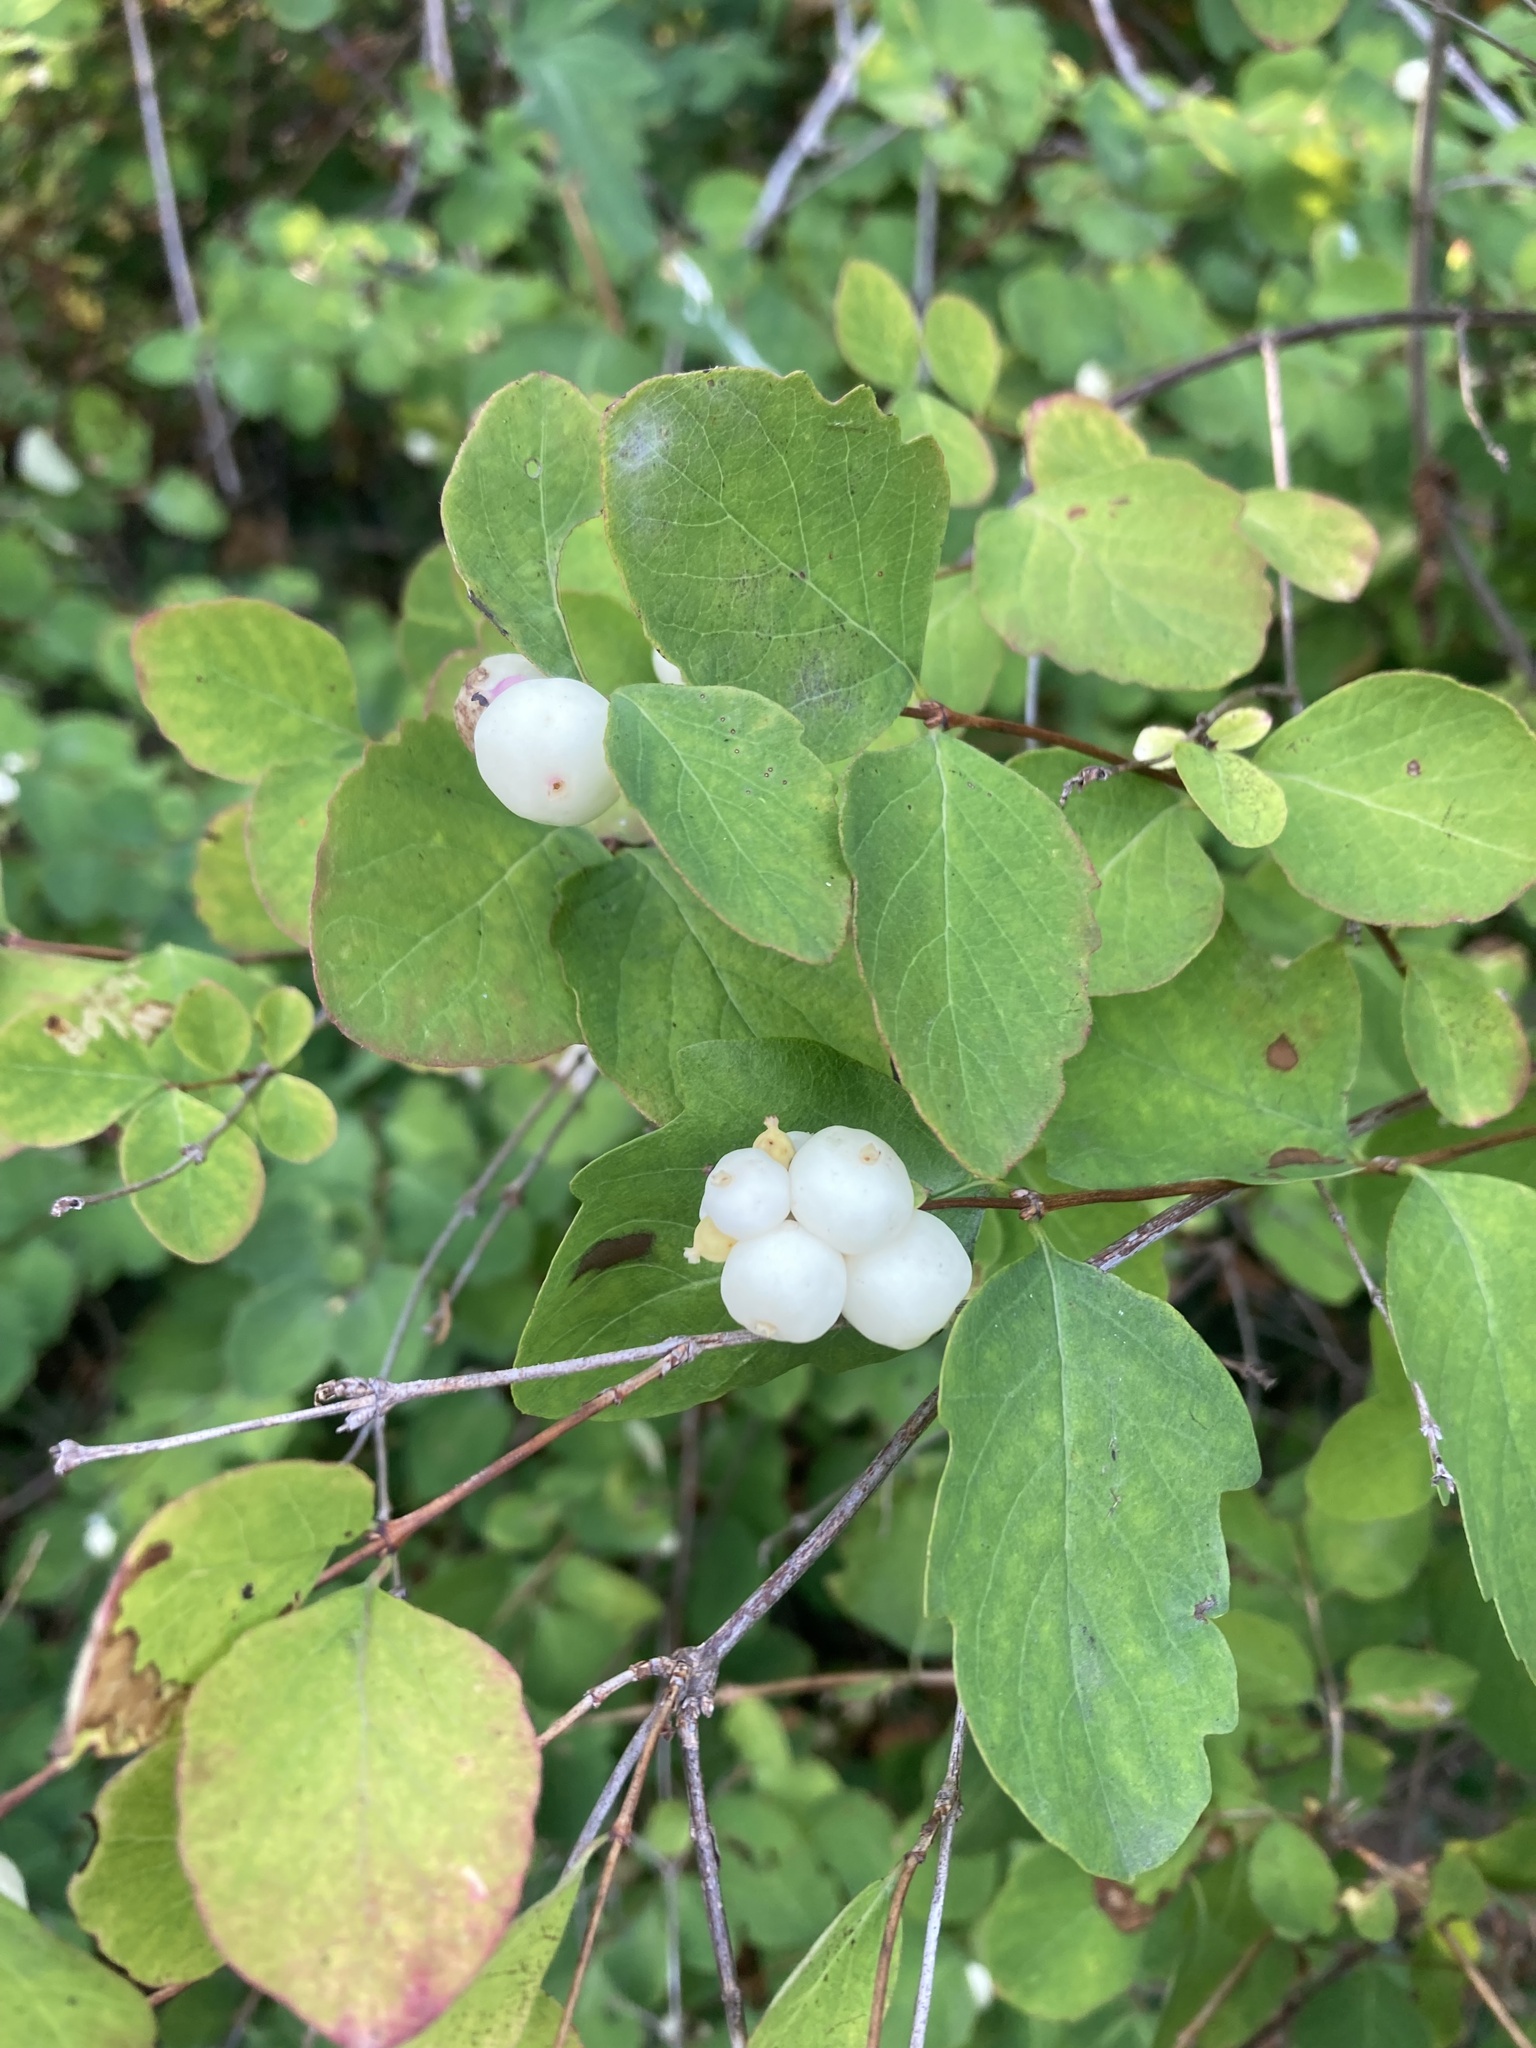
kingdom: Plantae
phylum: Tracheophyta
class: Magnoliopsida
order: Dipsacales
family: Caprifoliaceae
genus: Symphoricarpos
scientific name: Symphoricarpos albus
